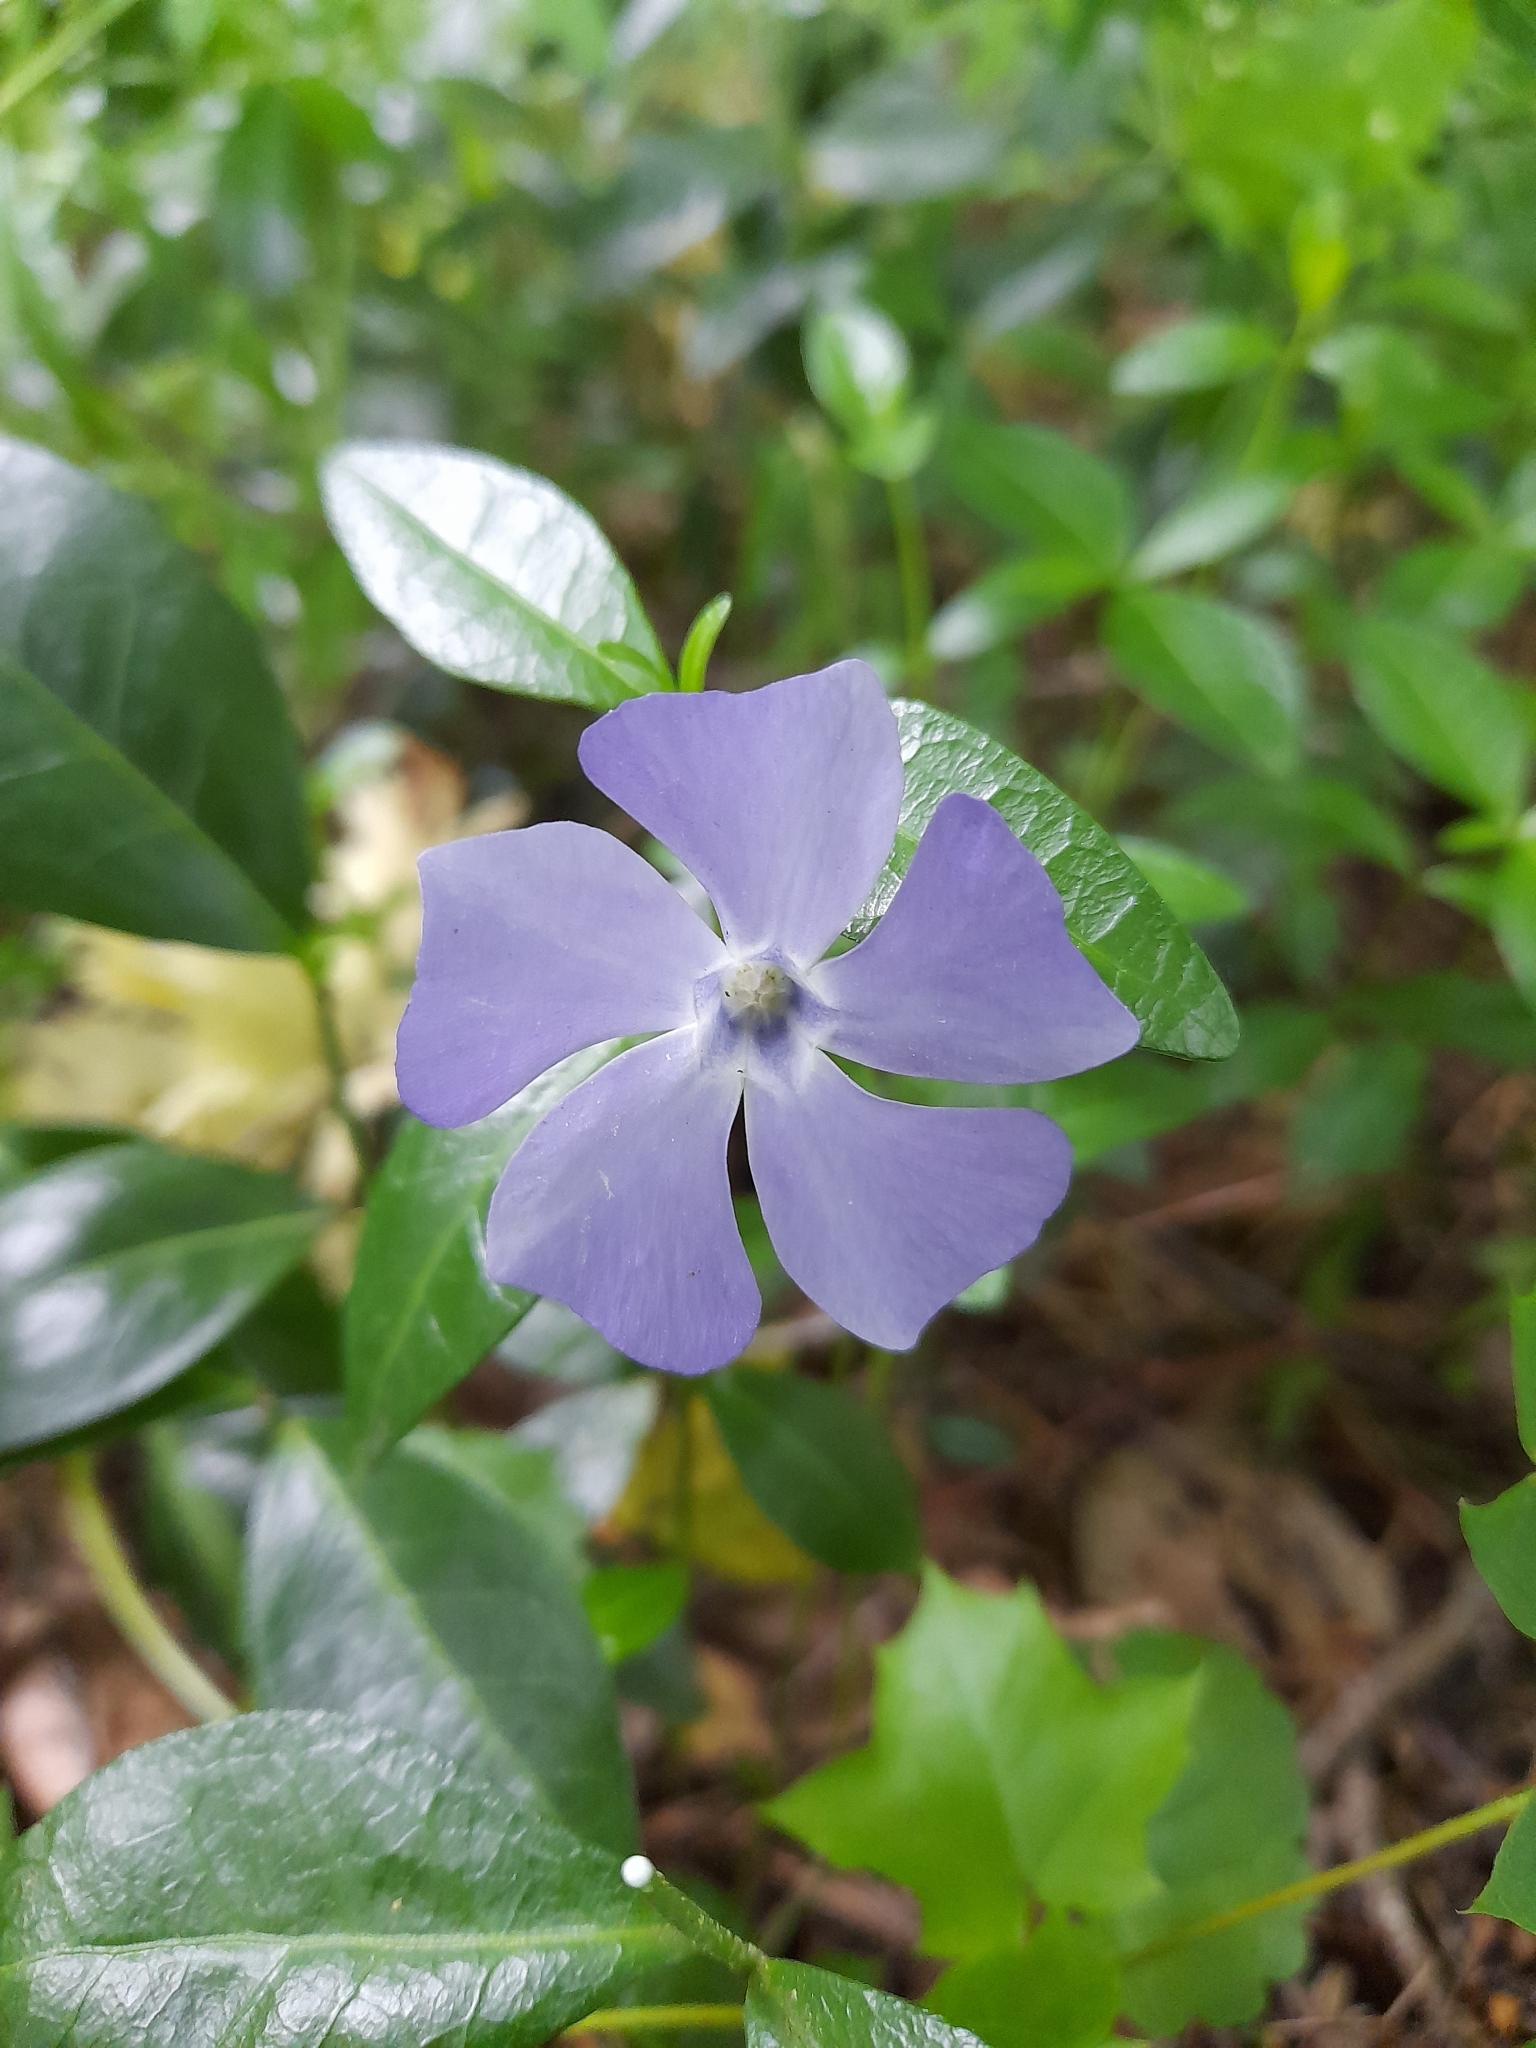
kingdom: Plantae
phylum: Tracheophyta
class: Magnoliopsida
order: Gentianales
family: Apocynaceae
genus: Vinca
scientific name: Vinca minor
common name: Lesser periwinkle
